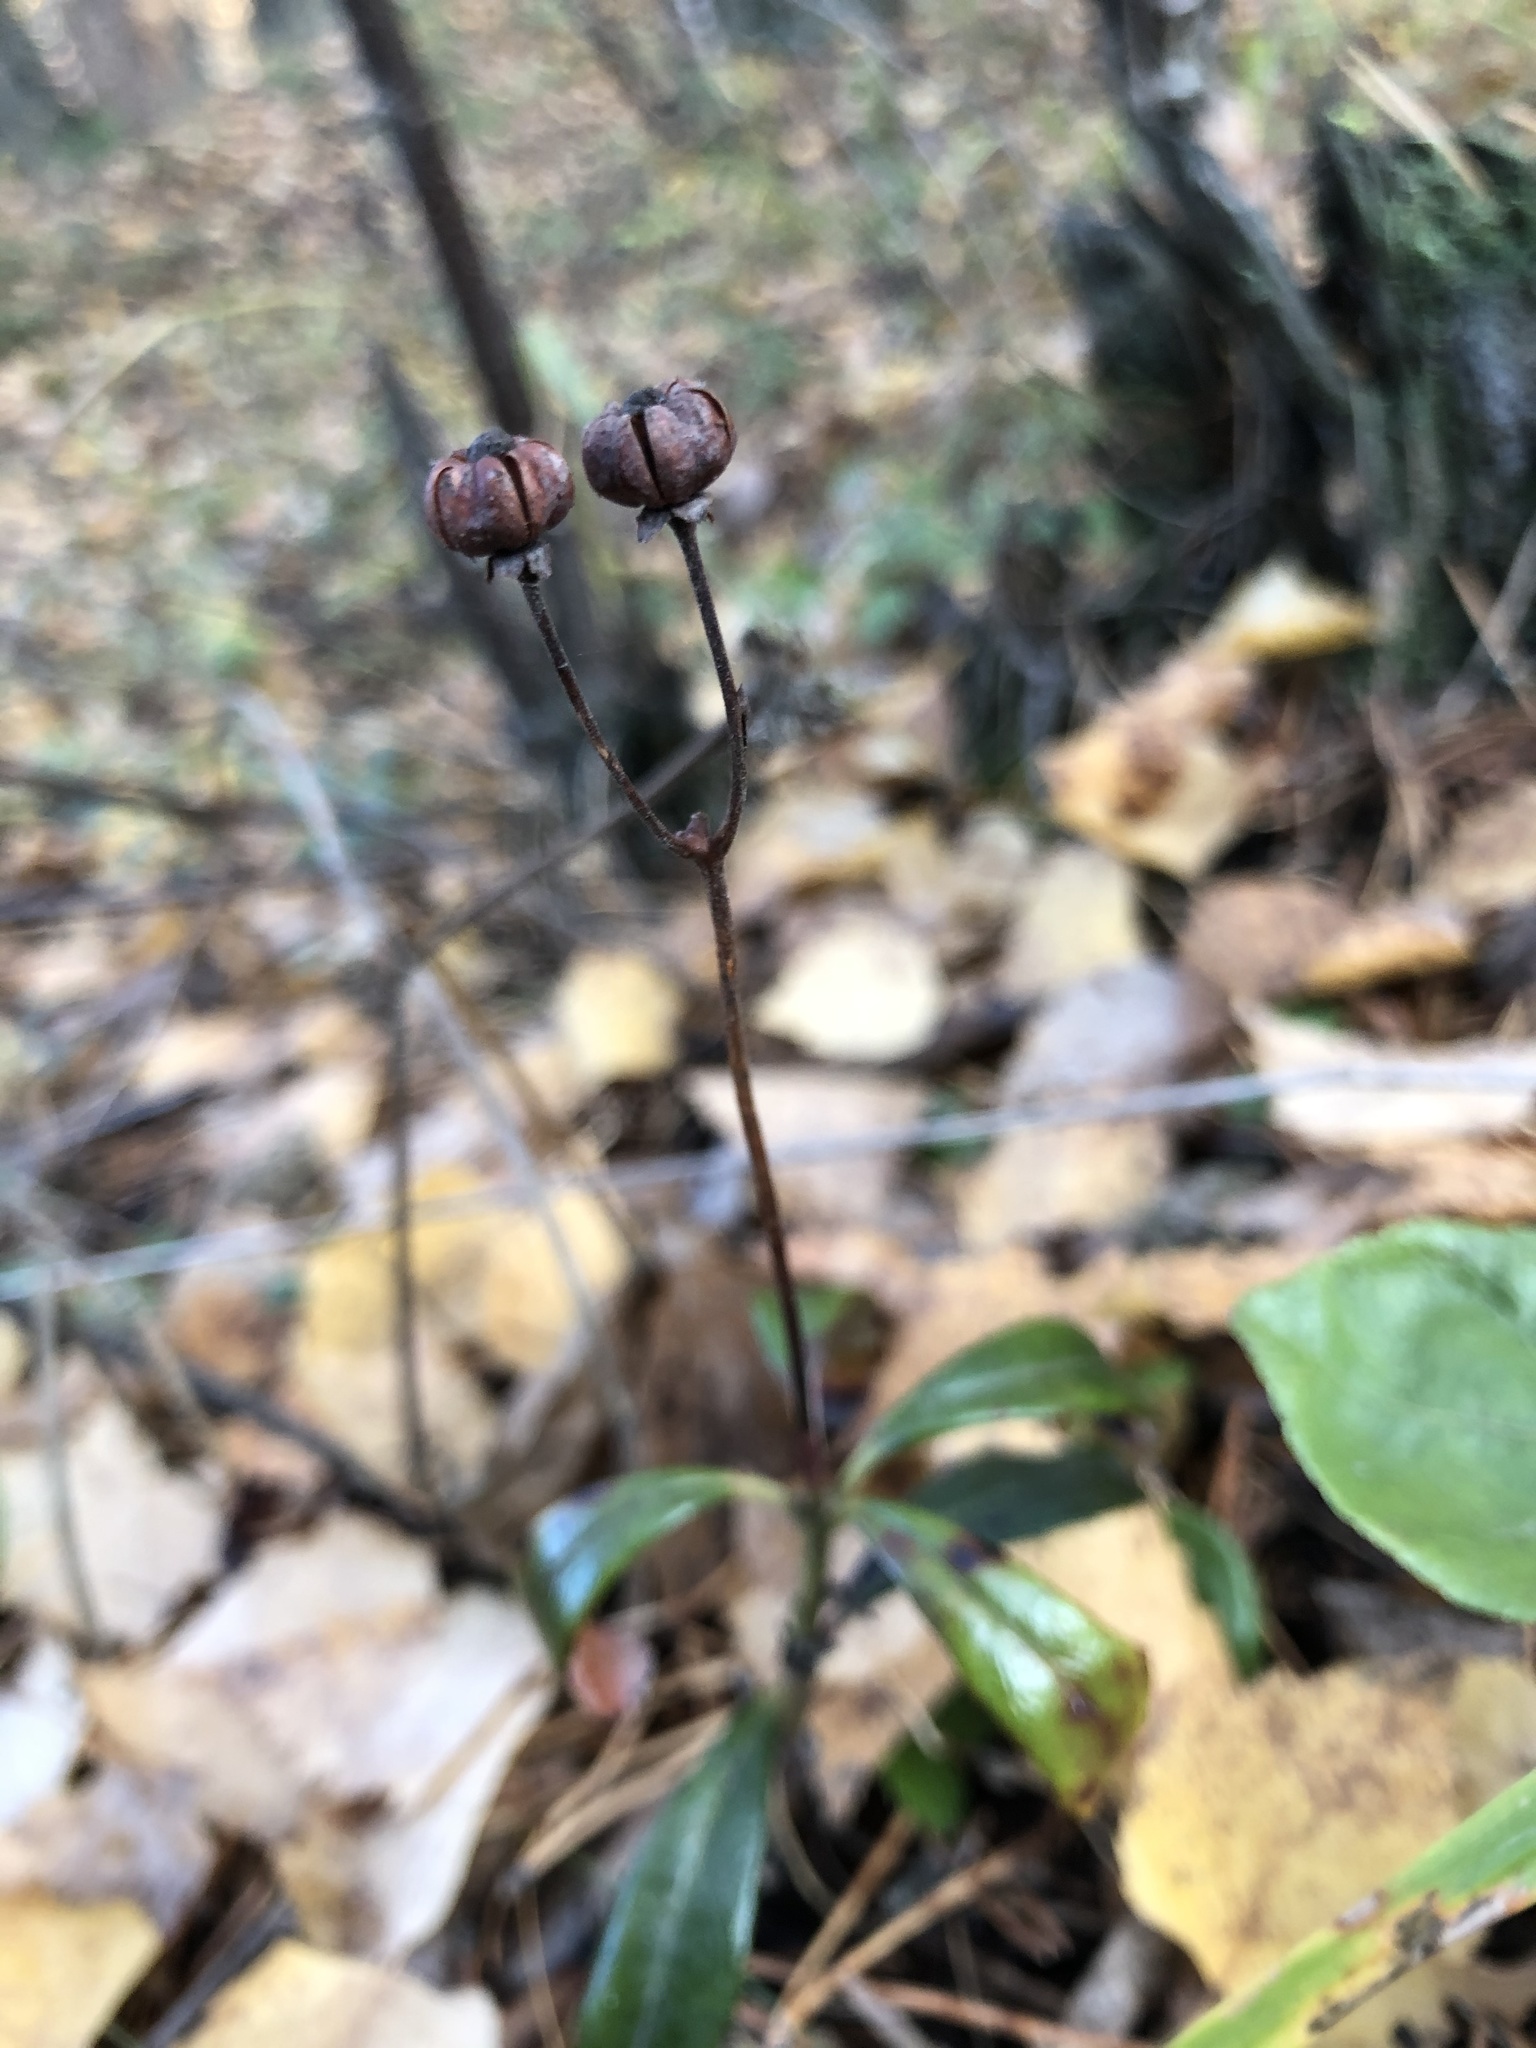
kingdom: Plantae
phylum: Tracheophyta
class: Magnoliopsida
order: Ericales
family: Ericaceae
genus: Chimaphila
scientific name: Chimaphila umbellata
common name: Pipsissewa
